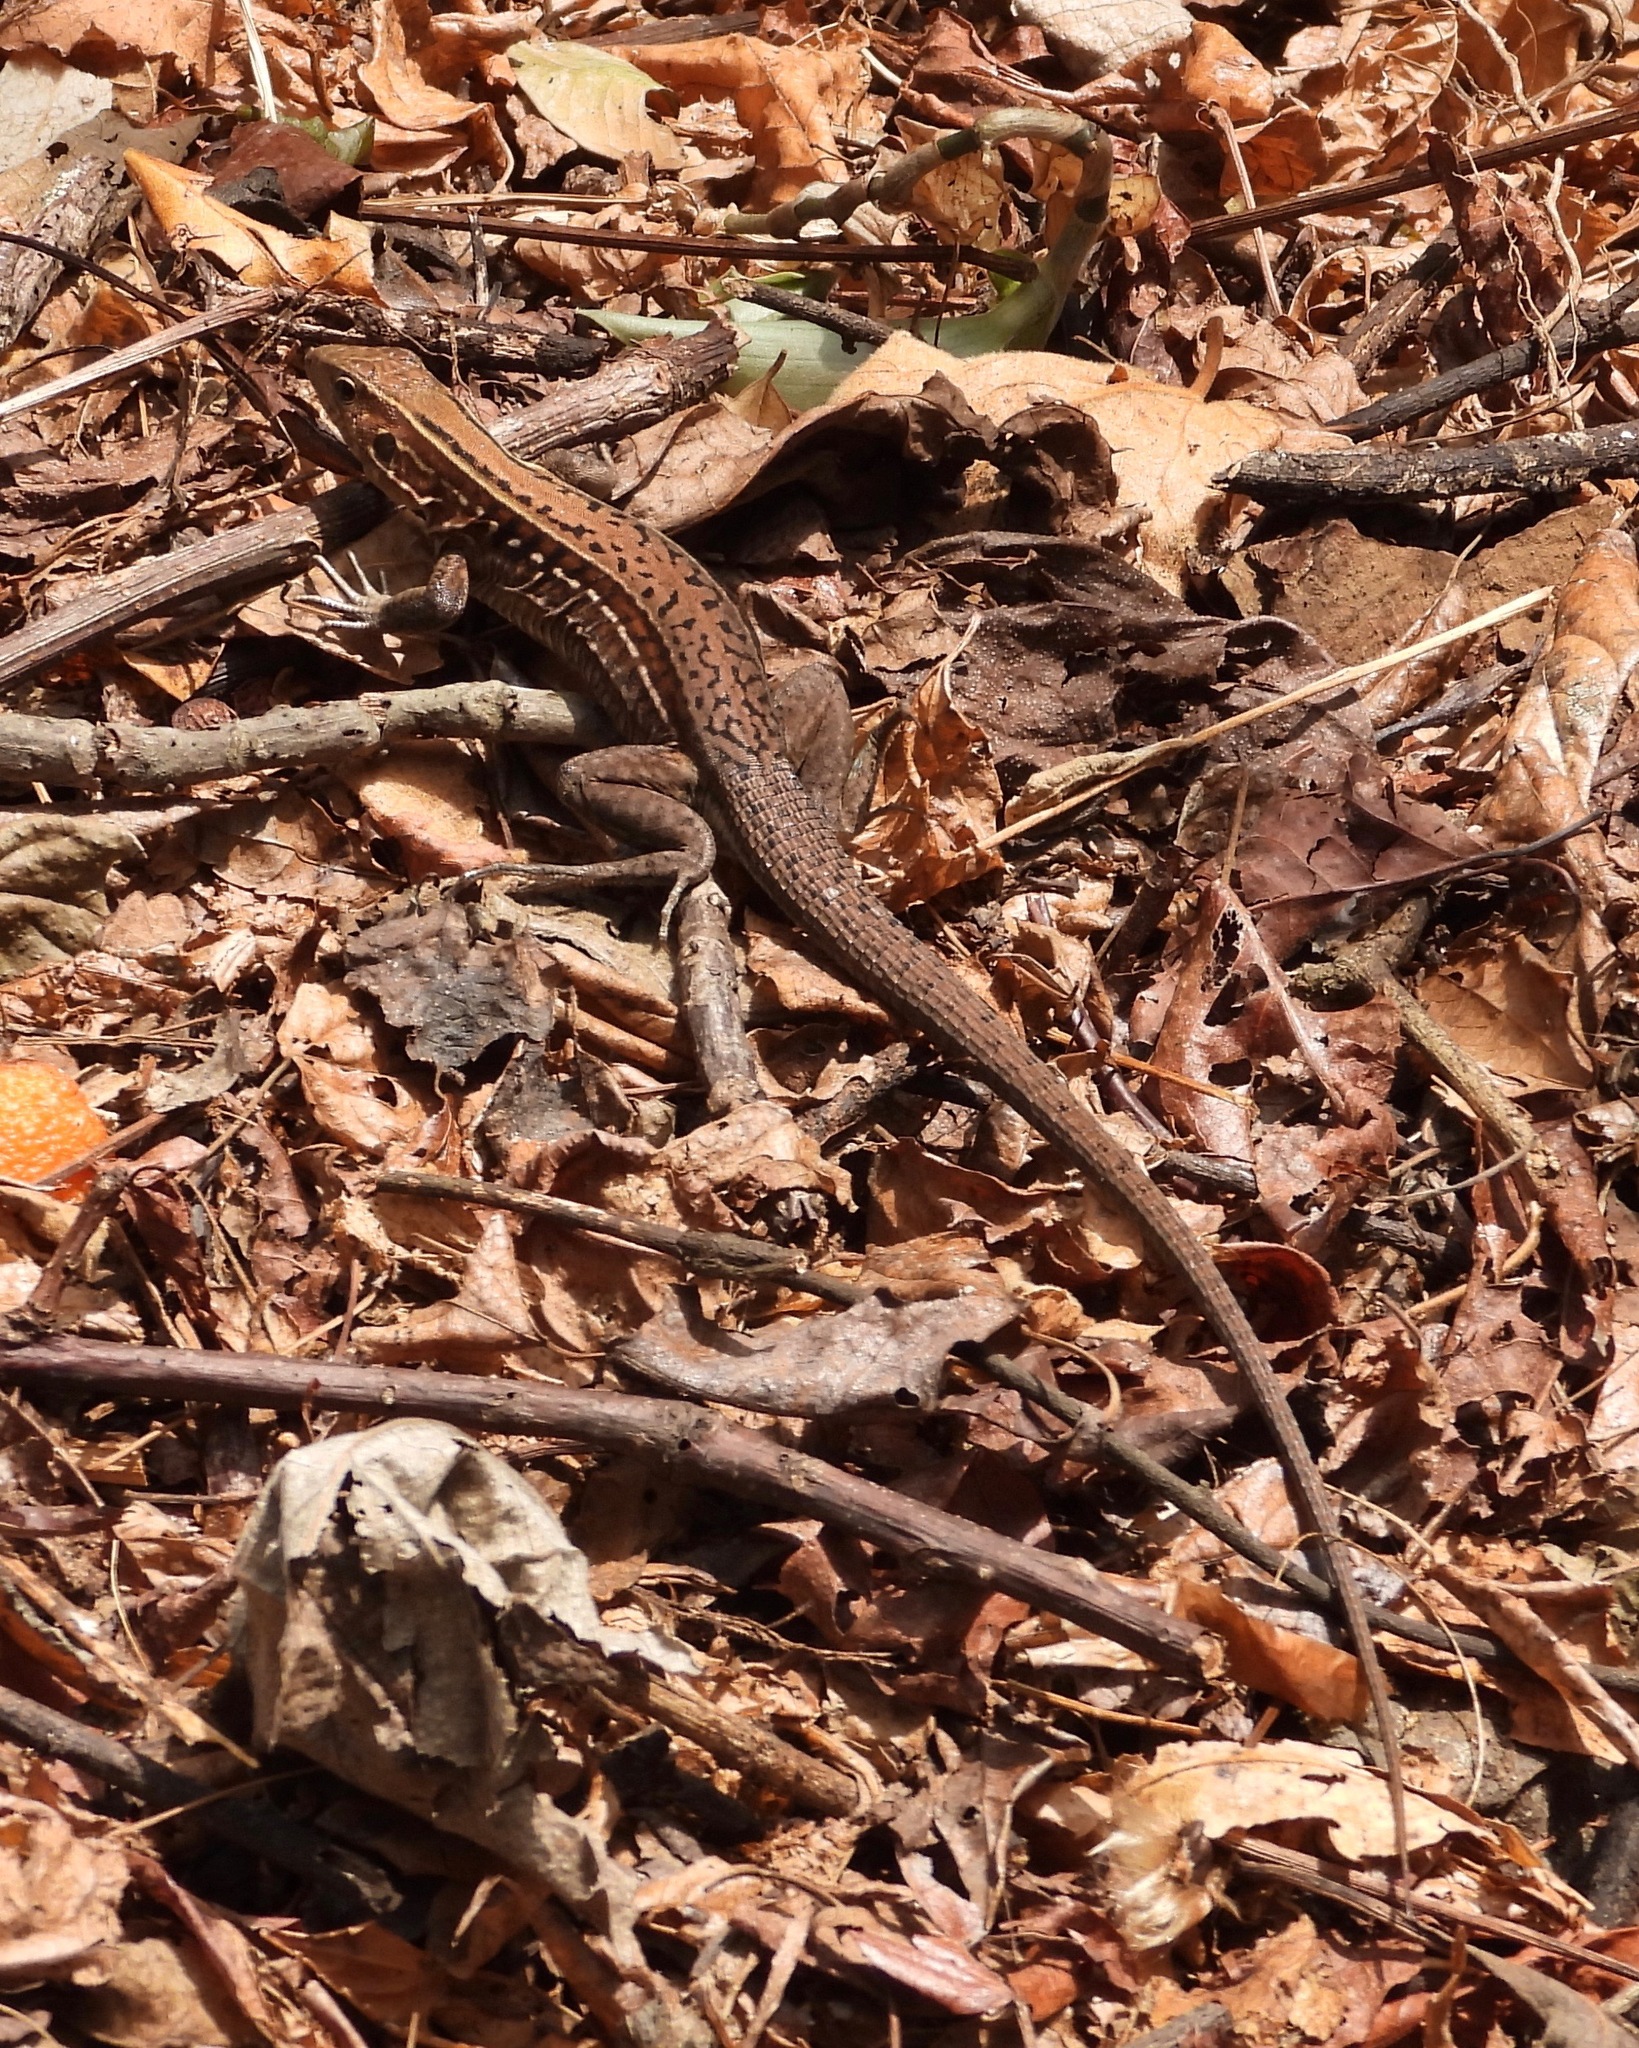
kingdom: Animalia
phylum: Chordata
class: Squamata
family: Teiidae
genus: Holcosus
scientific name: Holcosus undulatus
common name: Rainbow ameiva
